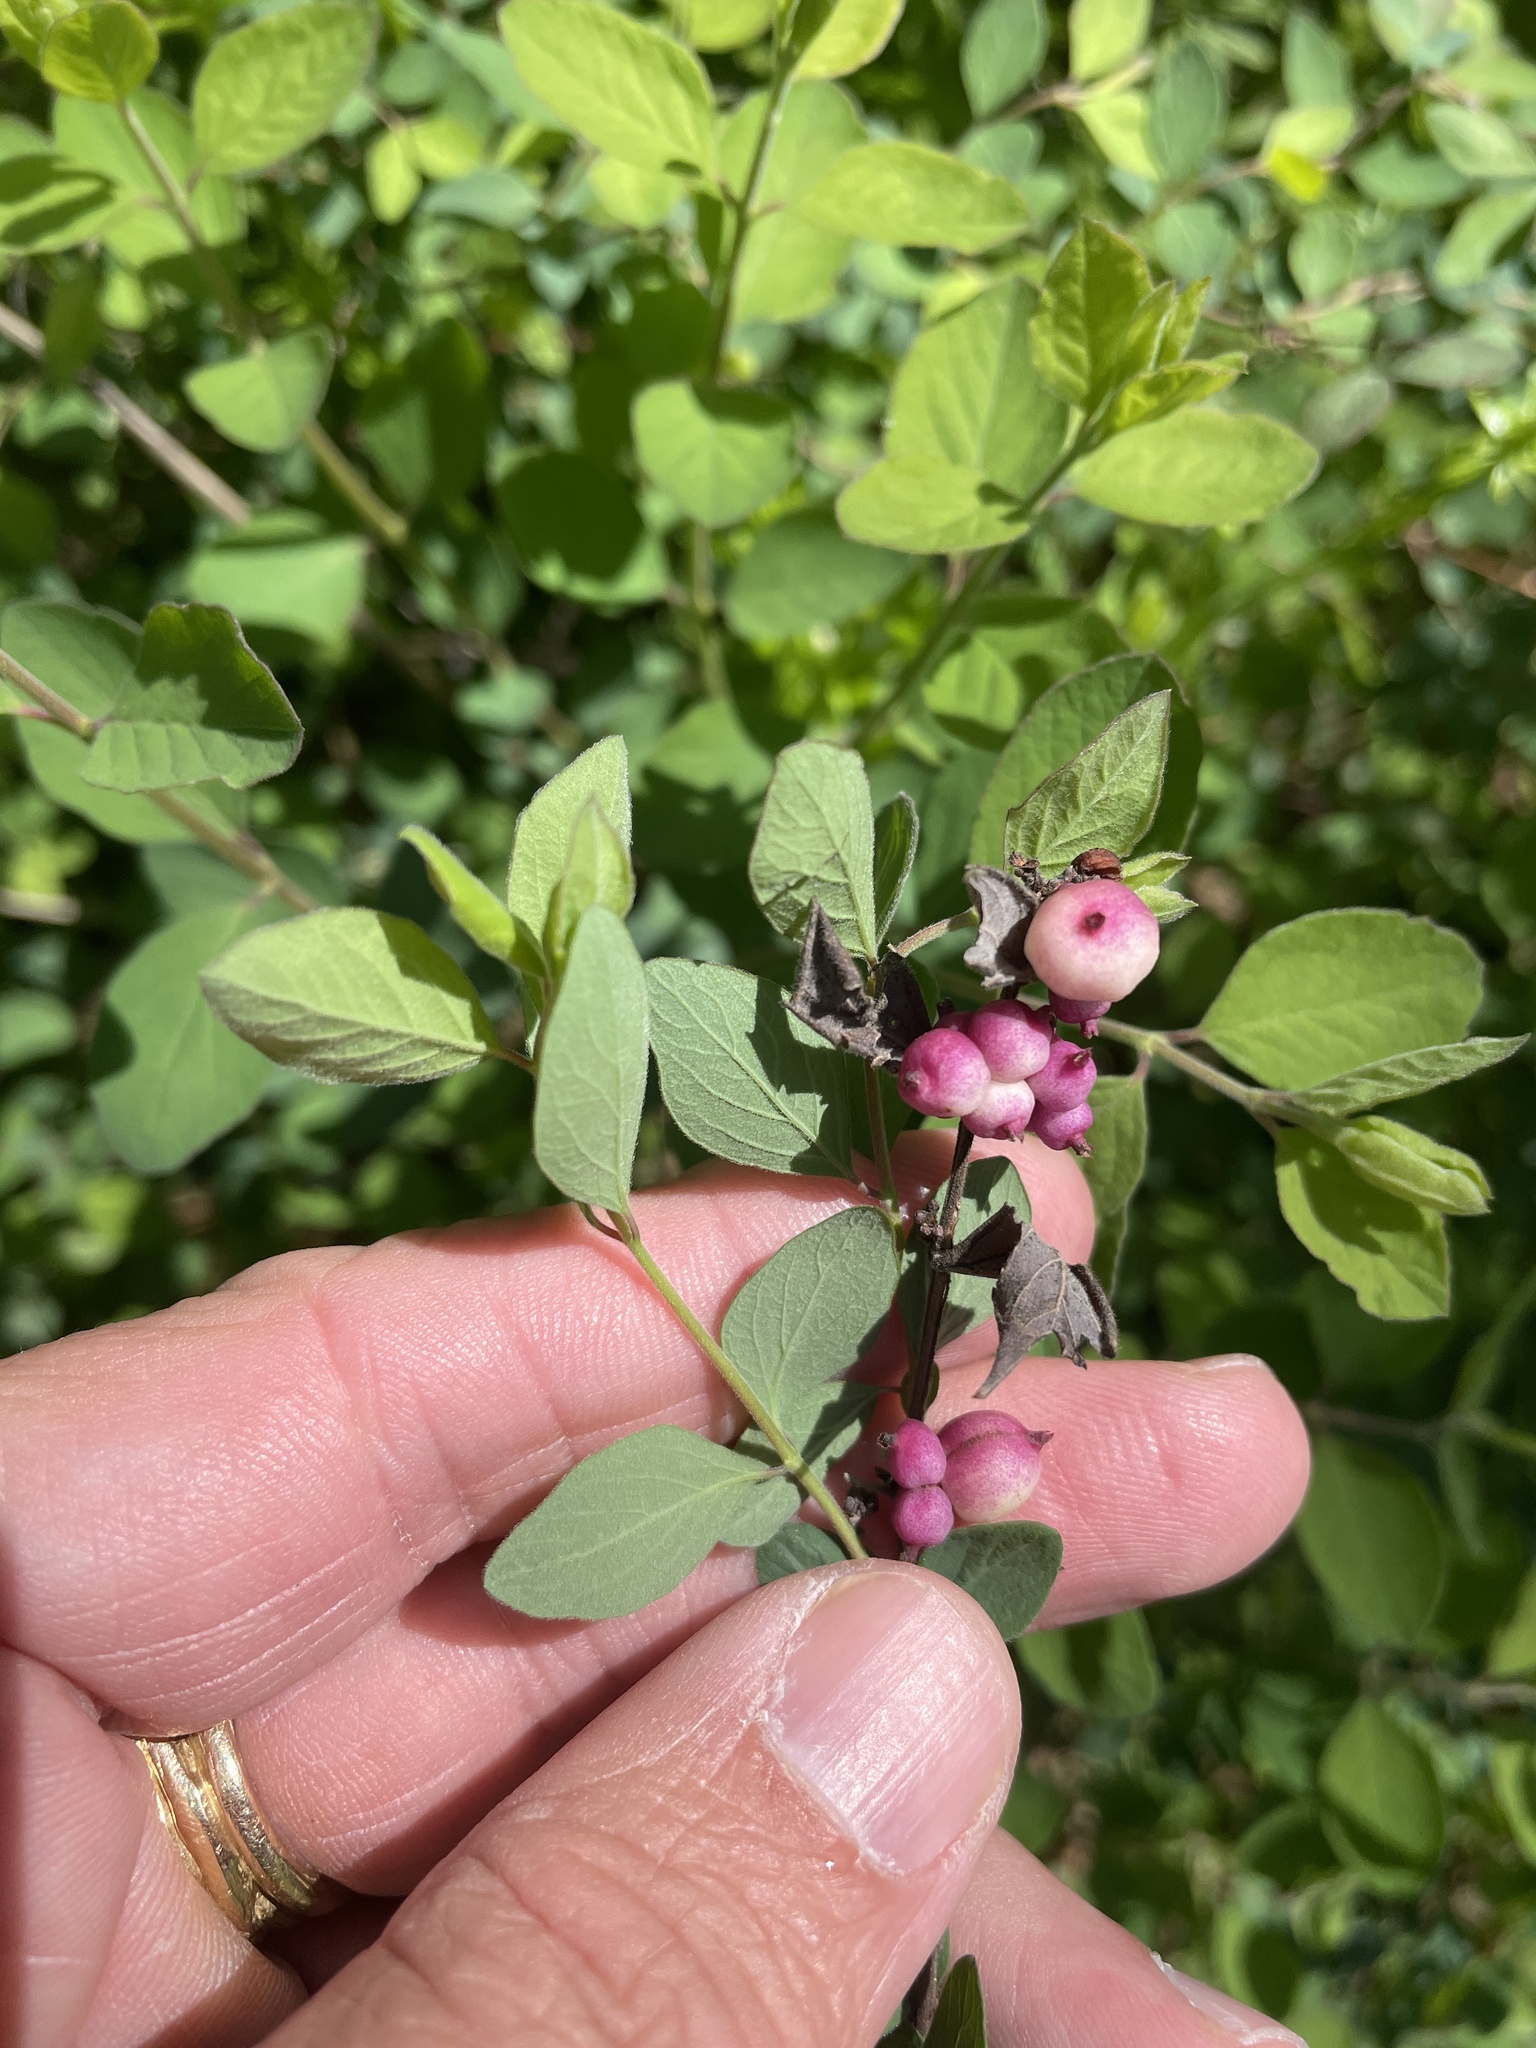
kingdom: Plantae
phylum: Tracheophyta
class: Magnoliopsida
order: Dipsacales
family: Caprifoliaceae
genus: Symphoricarpos
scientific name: Symphoricarpos orbiculatus
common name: Coralberry
